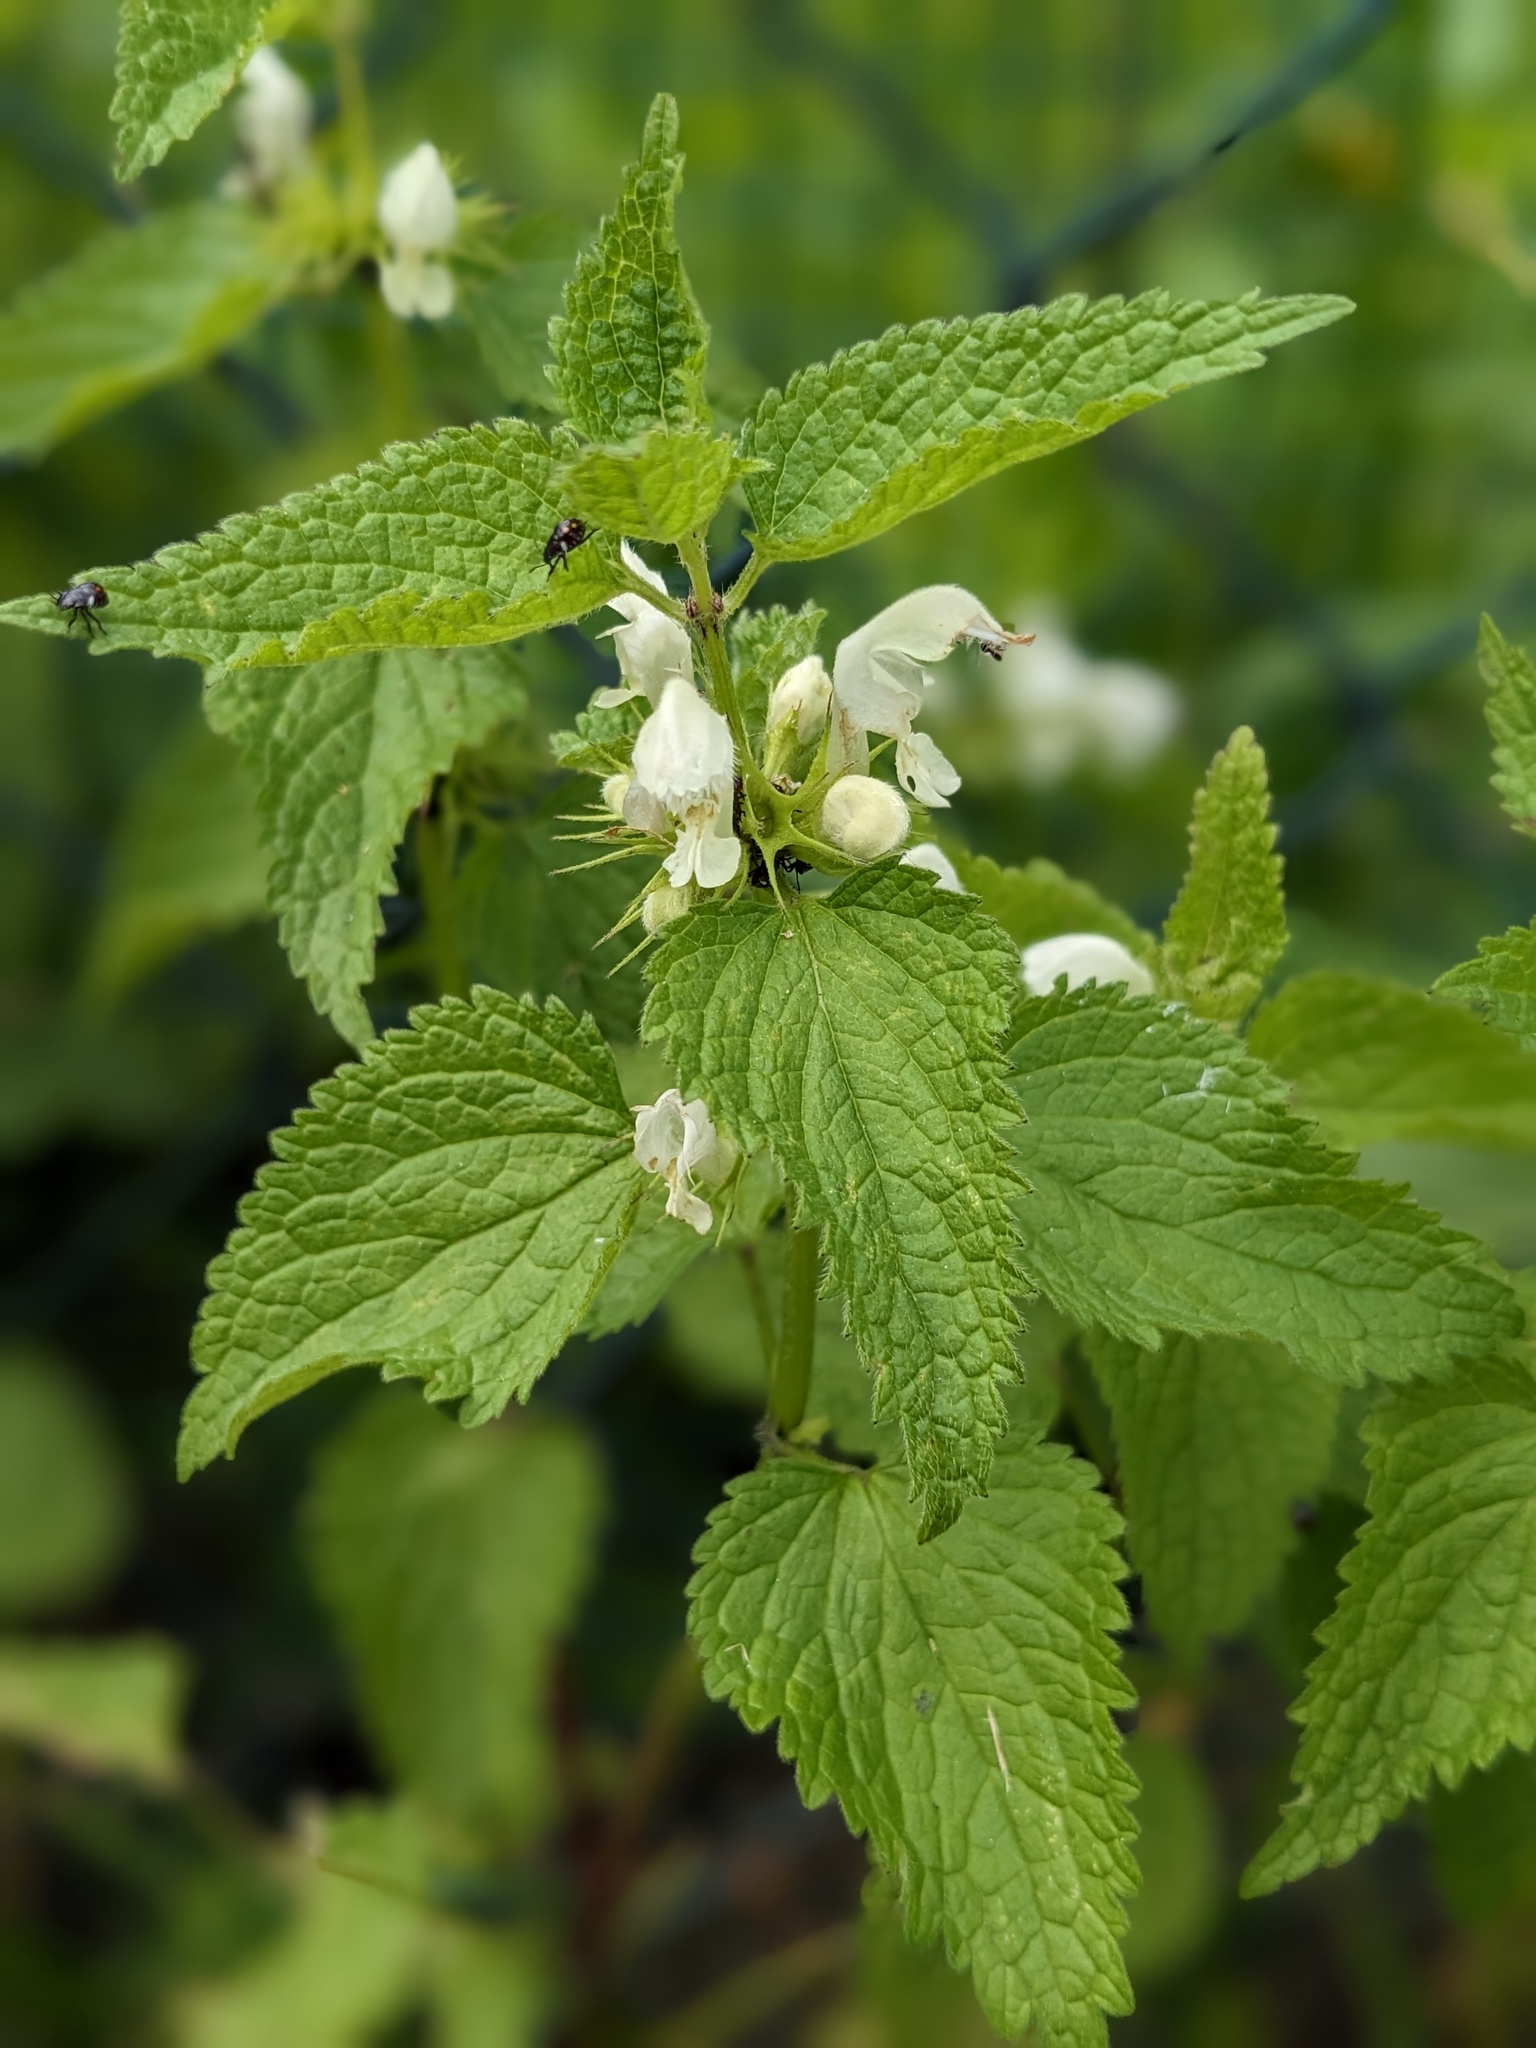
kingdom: Plantae
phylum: Tracheophyta
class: Magnoliopsida
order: Lamiales
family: Lamiaceae
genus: Lamium
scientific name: Lamium album
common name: White dead-nettle
